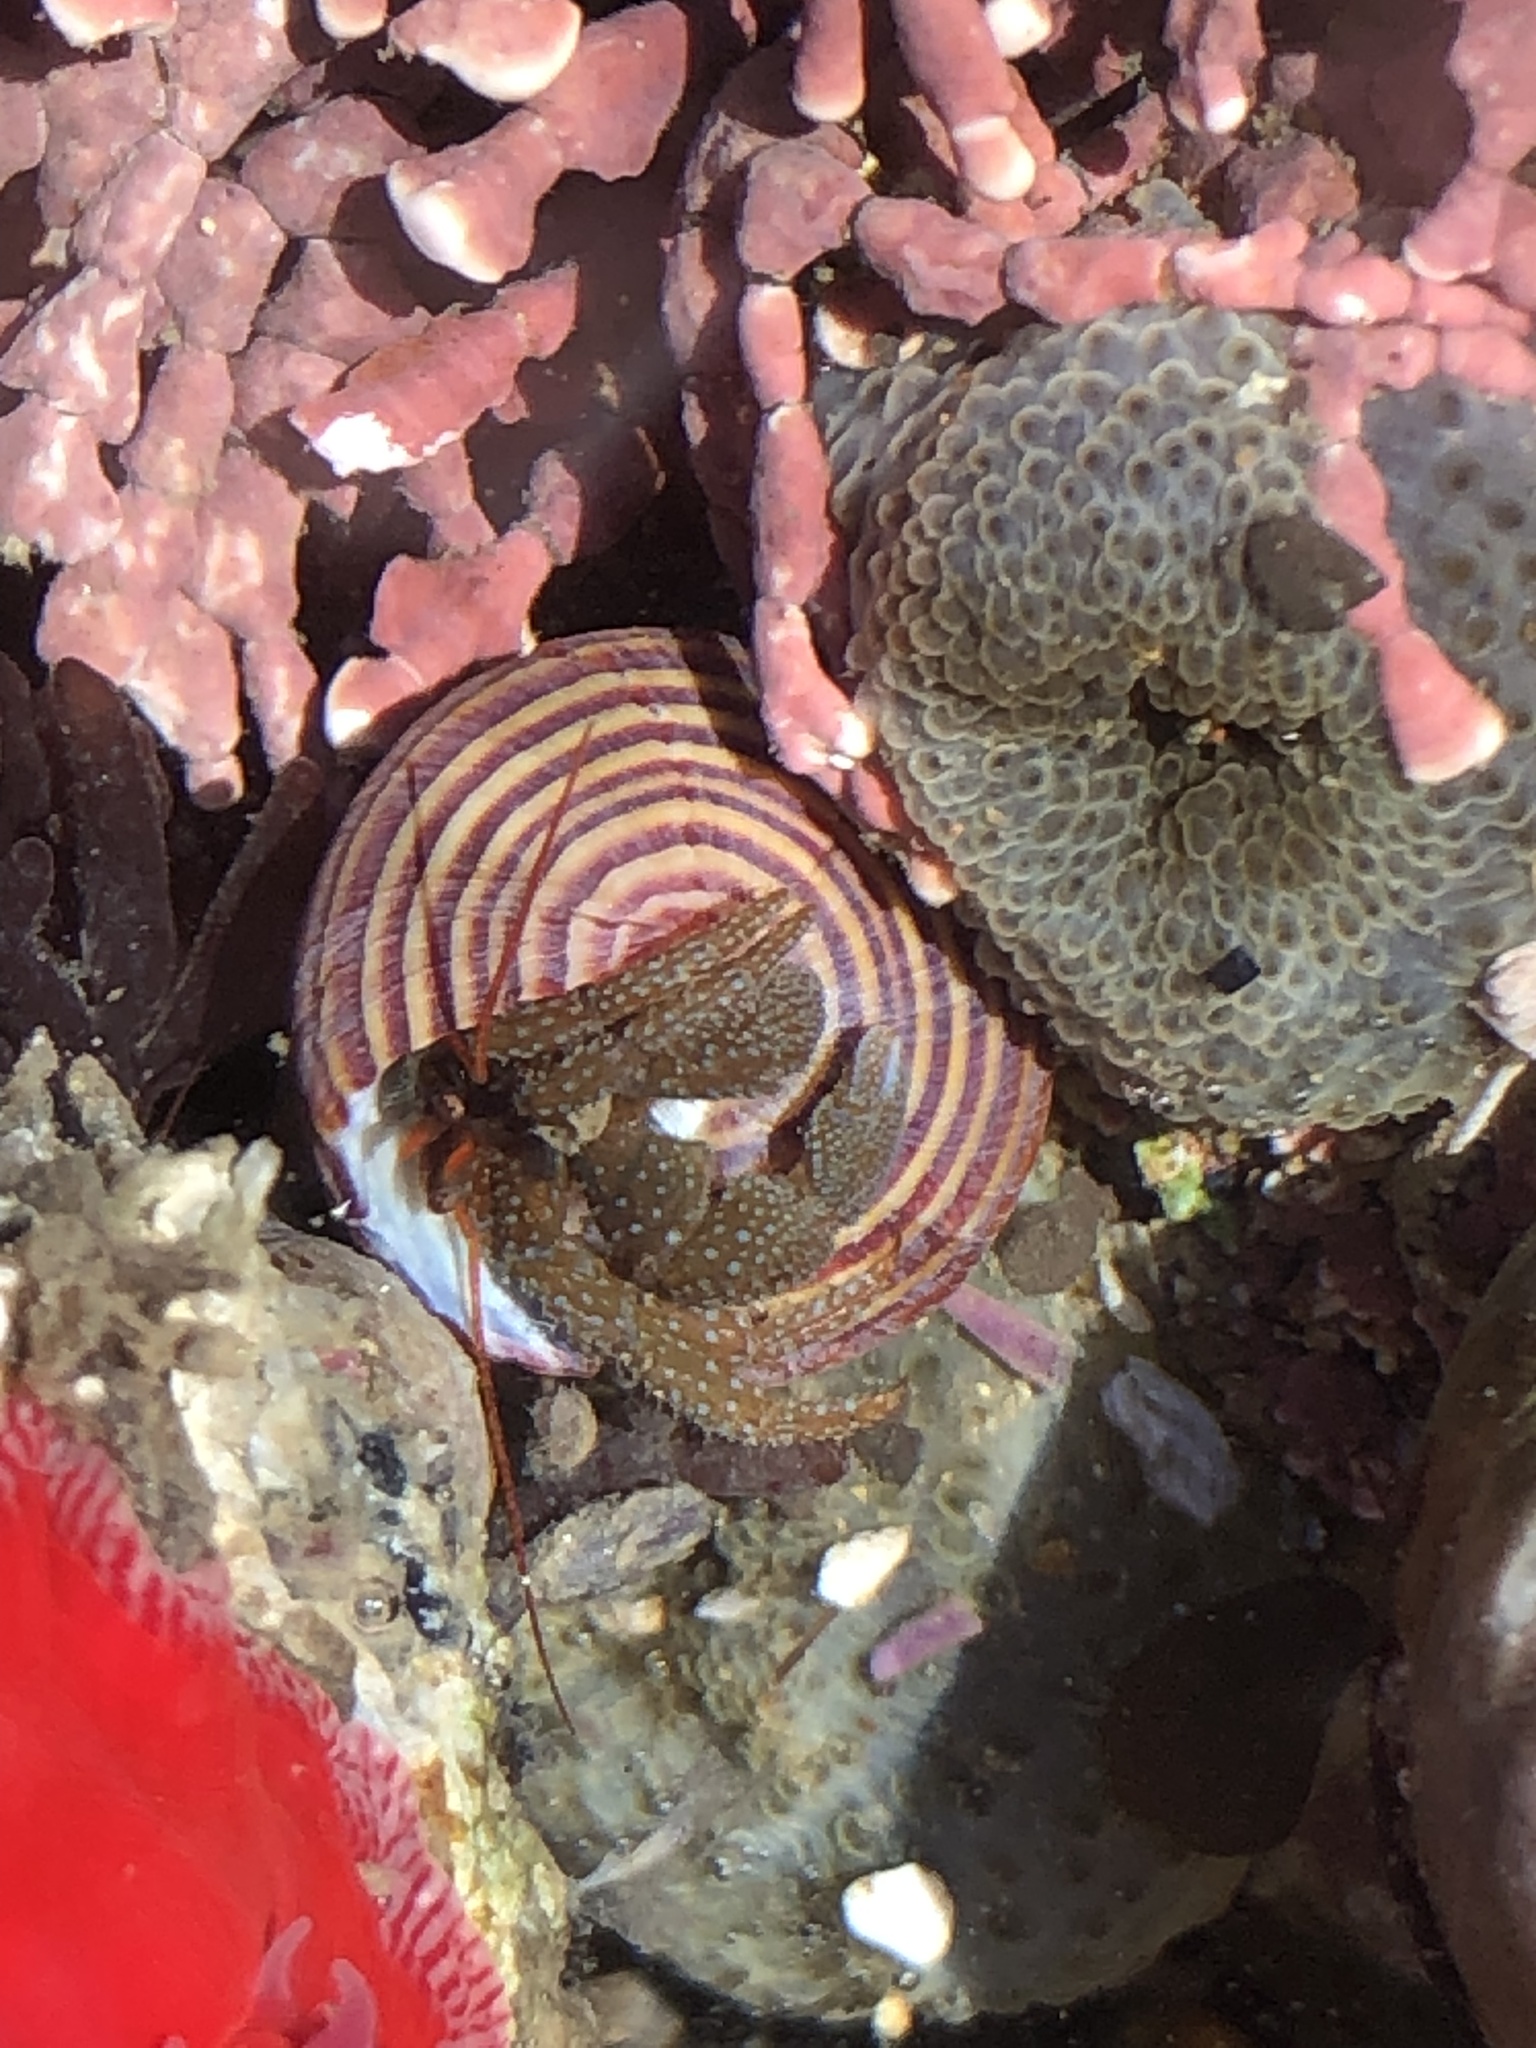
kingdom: Animalia
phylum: Arthropoda
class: Malacostraca
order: Decapoda
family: Paguridae
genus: Pagurus
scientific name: Pagurus granosimanus
